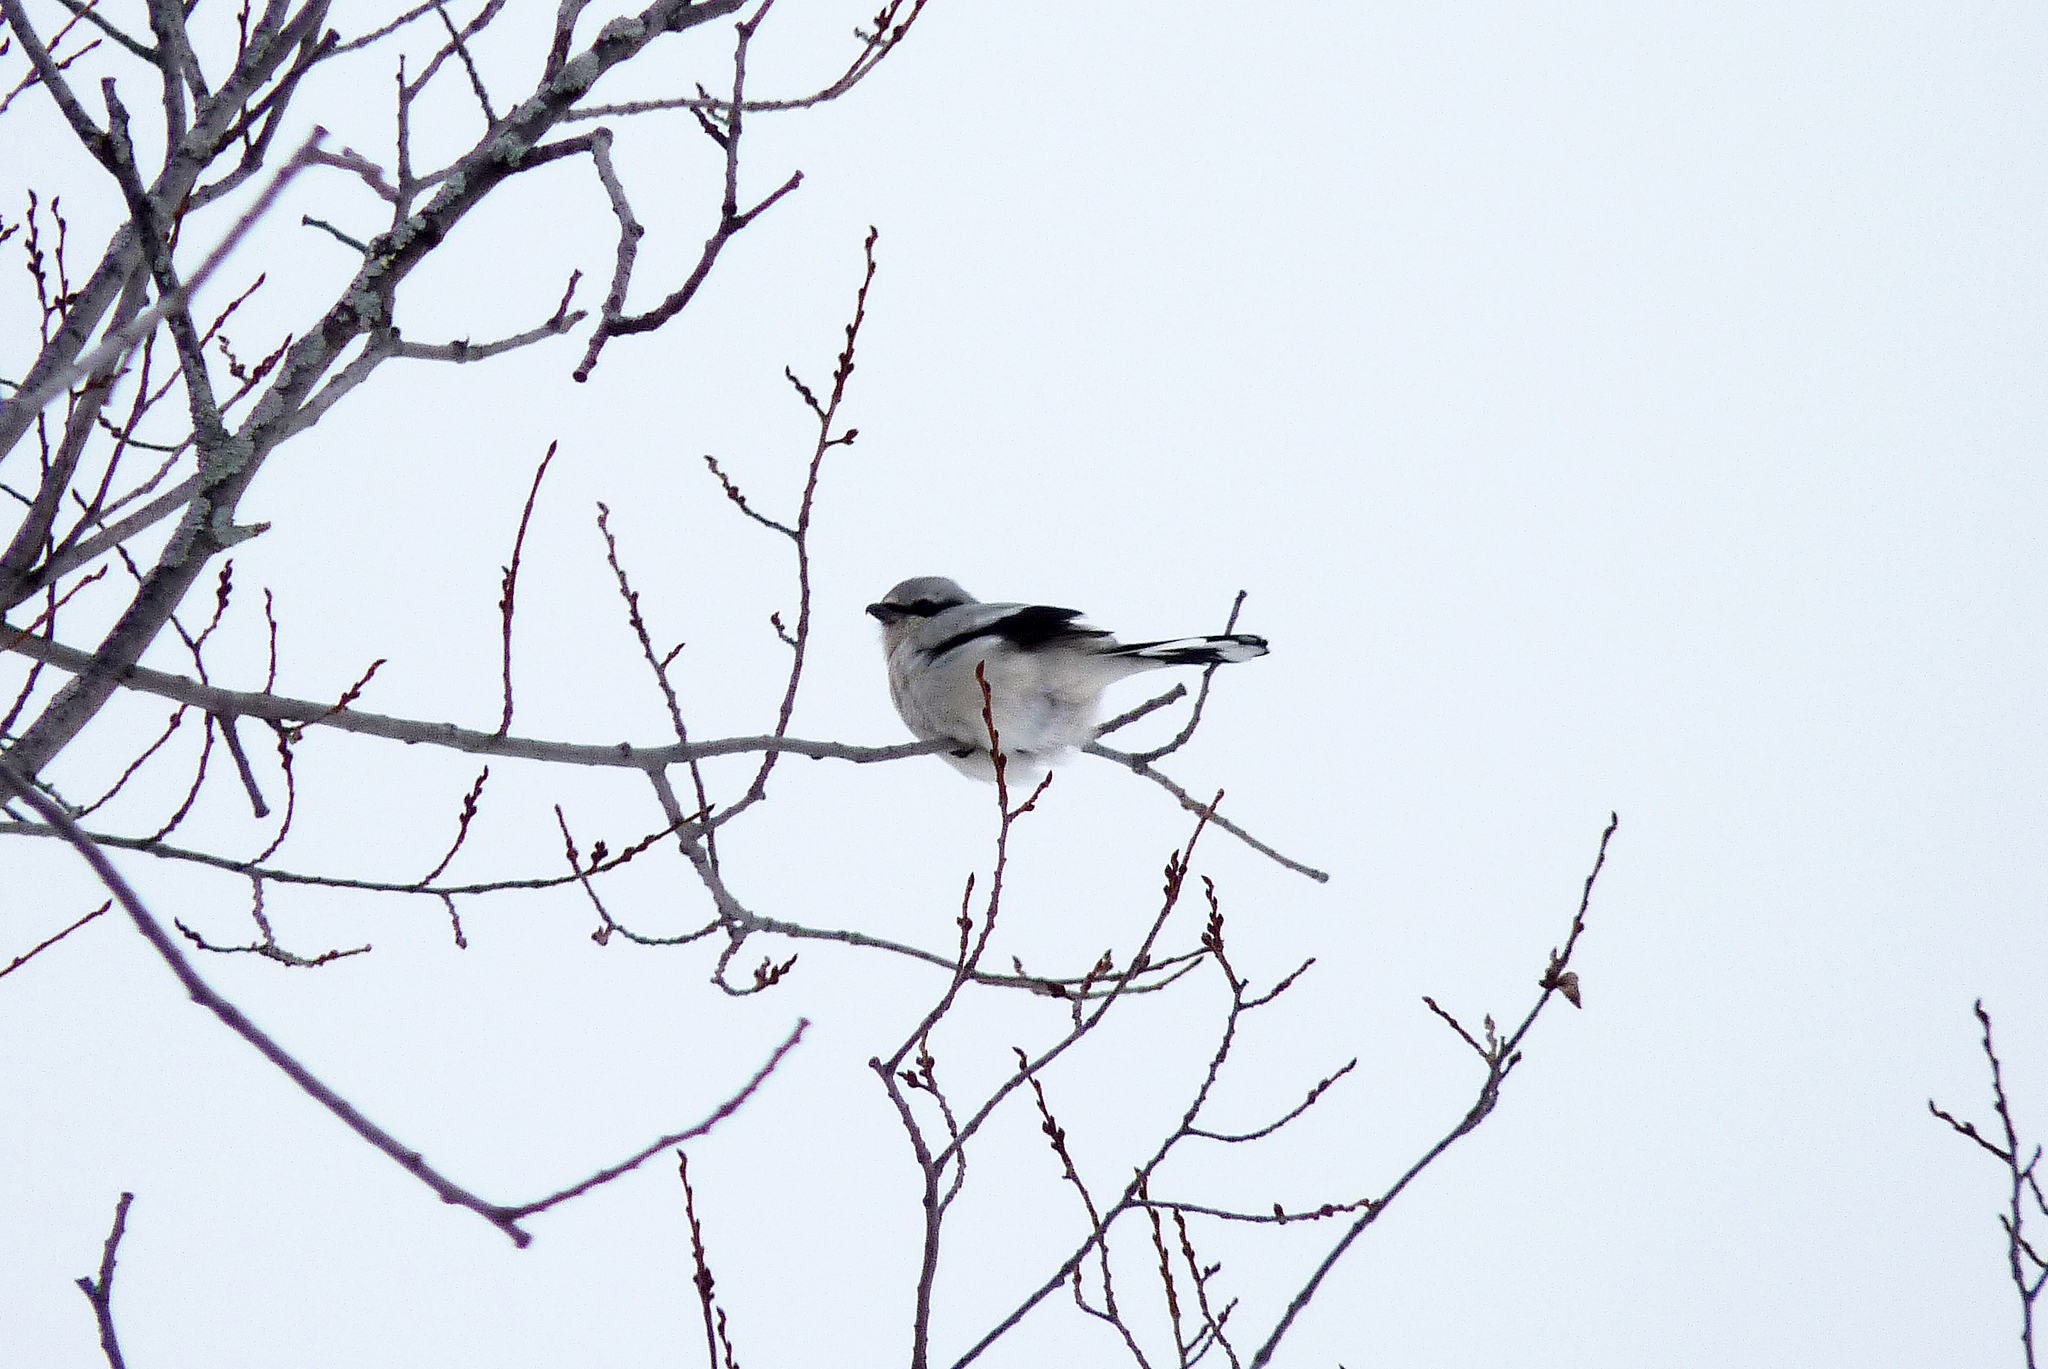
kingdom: Animalia
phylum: Chordata
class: Aves
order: Passeriformes
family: Laniidae
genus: Lanius
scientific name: Lanius borealis
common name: Northern shrike
